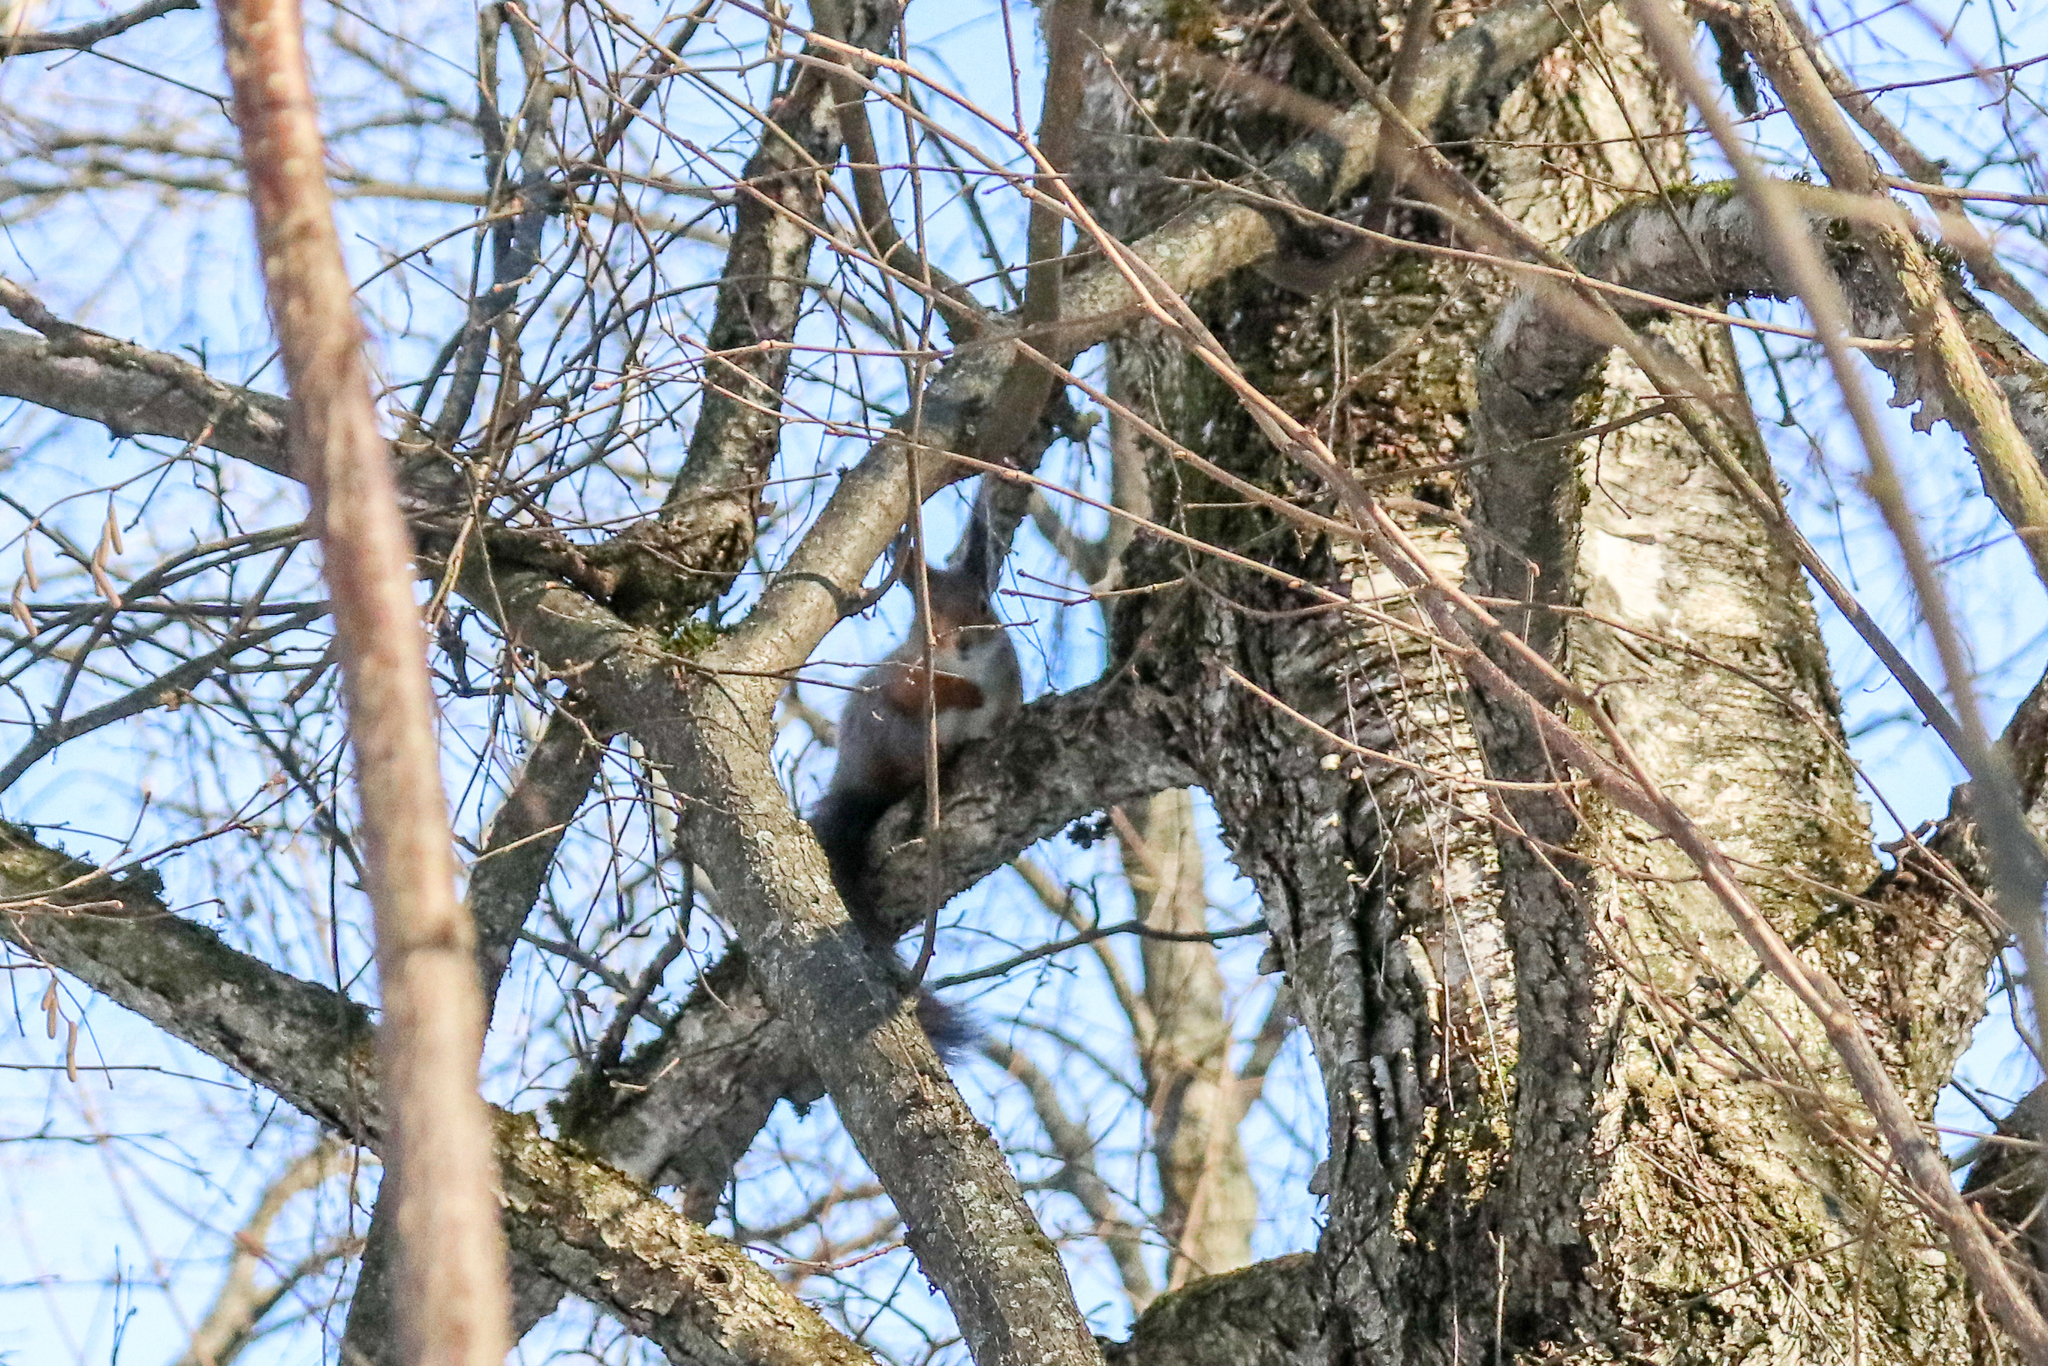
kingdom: Animalia
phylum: Chordata
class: Mammalia
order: Rodentia
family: Sciuridae
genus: Sciurus
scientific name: Sciurus vulgaris
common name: Eurasian red squirrel
